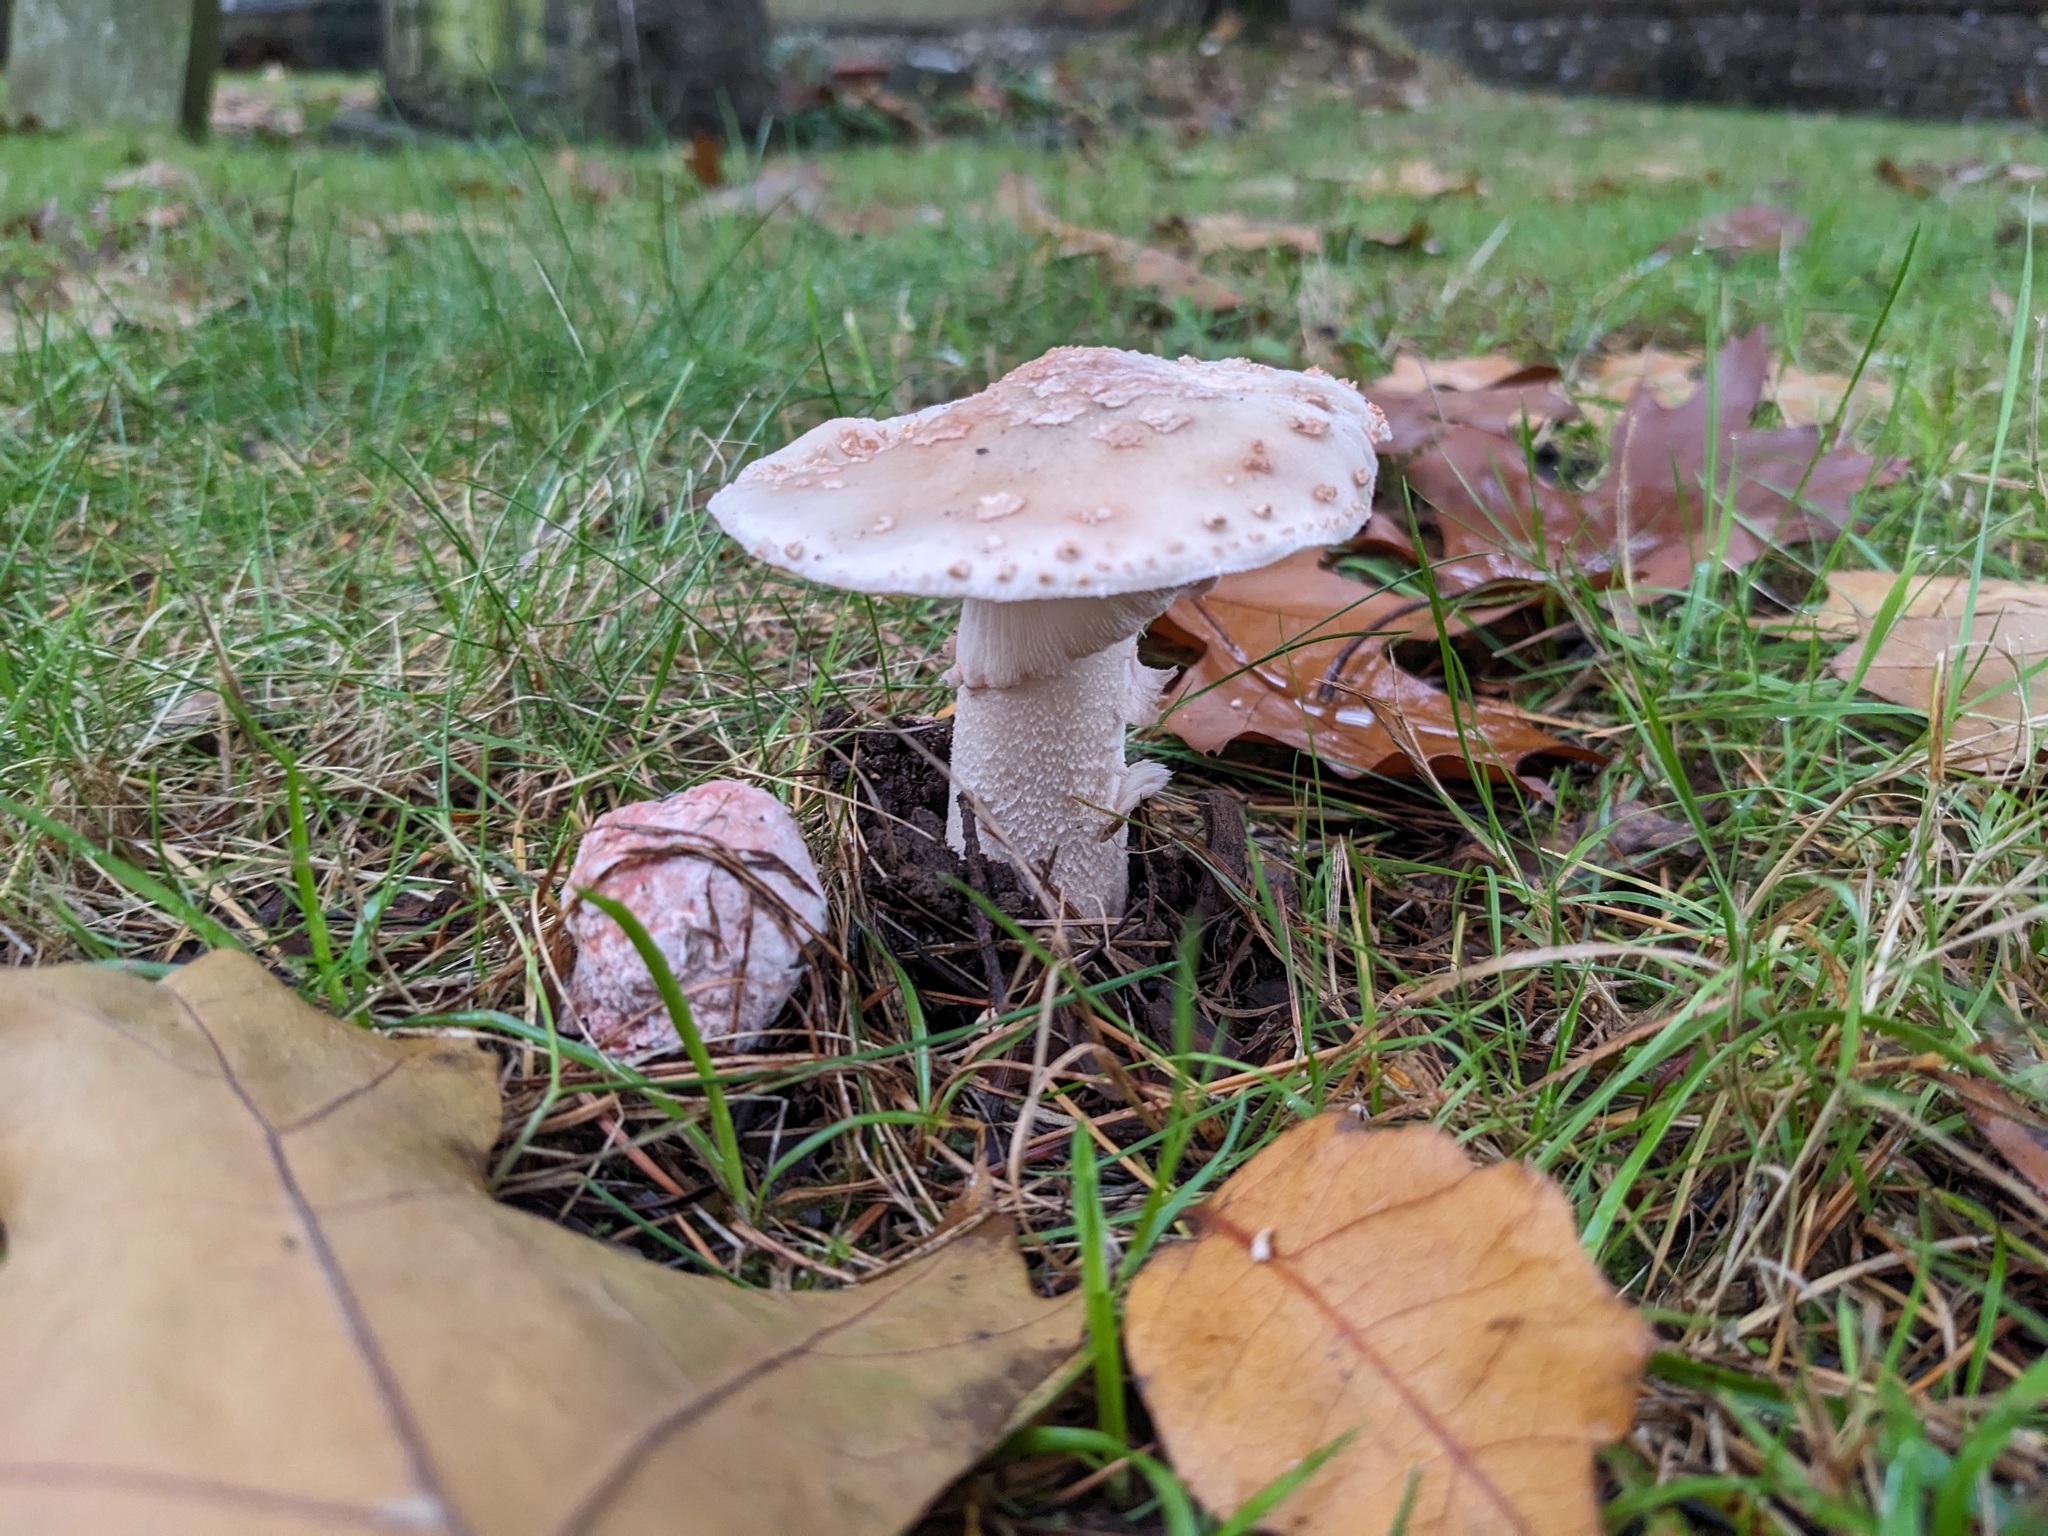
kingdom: Fungi
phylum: Basidiomycota
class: Agaricomycetes
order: Agaricales
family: Amanitaceae
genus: Amanita
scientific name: Amanita rubescens
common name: Blusher
